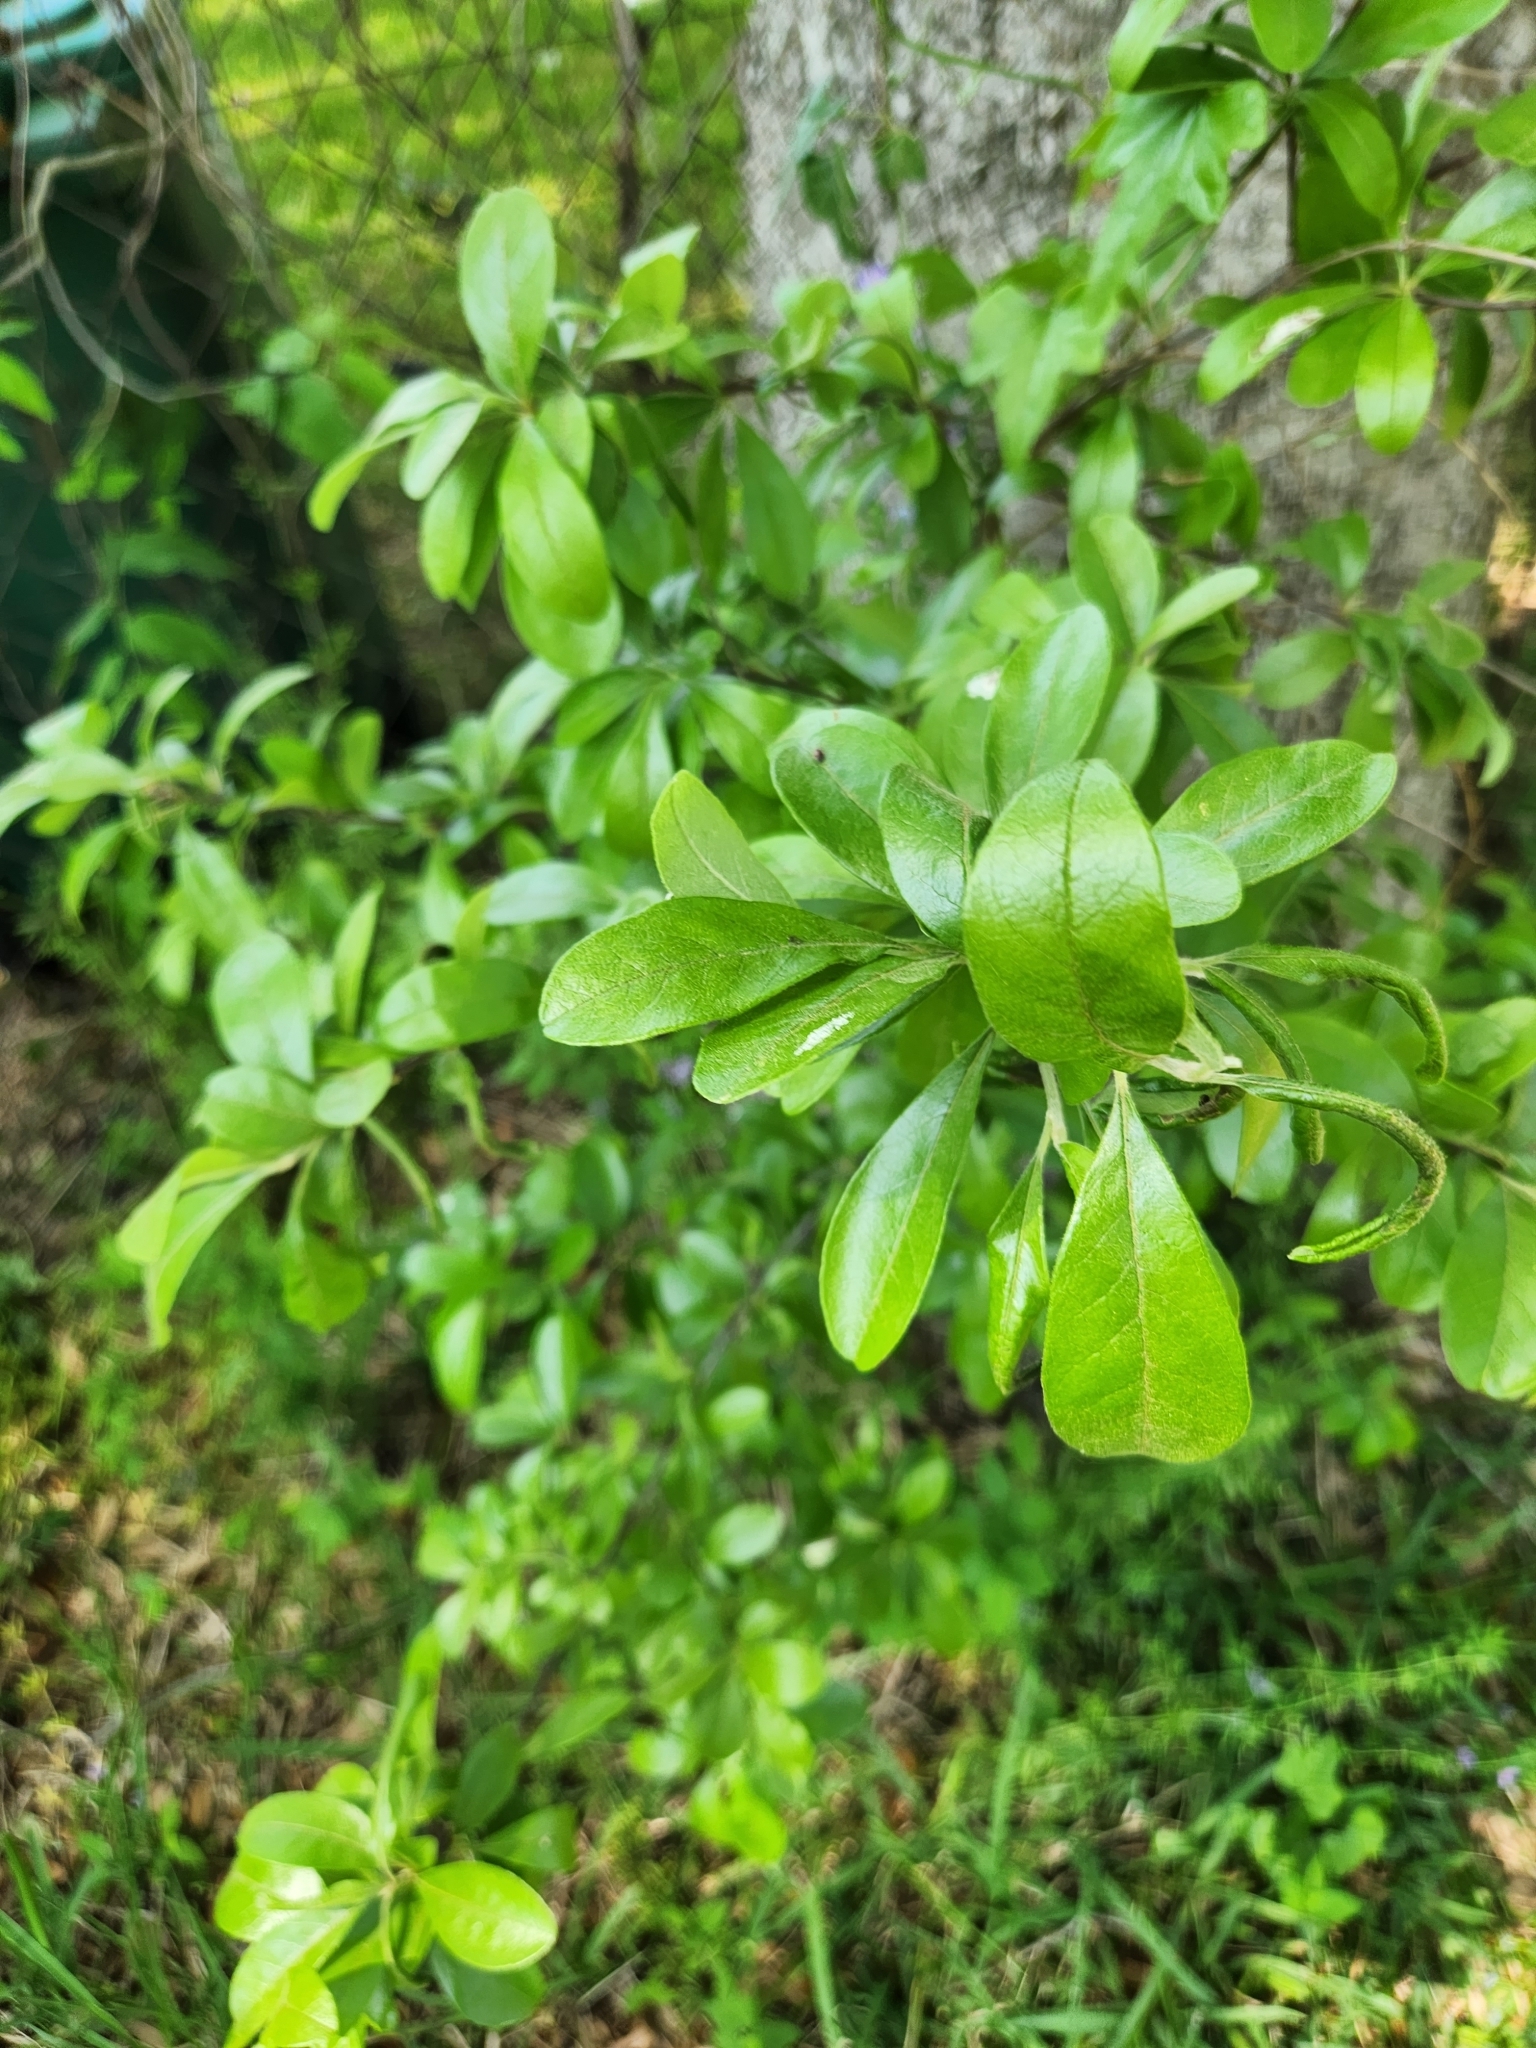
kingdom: Plantae
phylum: Tracheophyta
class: Magnoliopsida
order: Ericales
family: Sapotaceae
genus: Sideroxylon
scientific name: Sideroxylon lanuginosum
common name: Chittamwood
